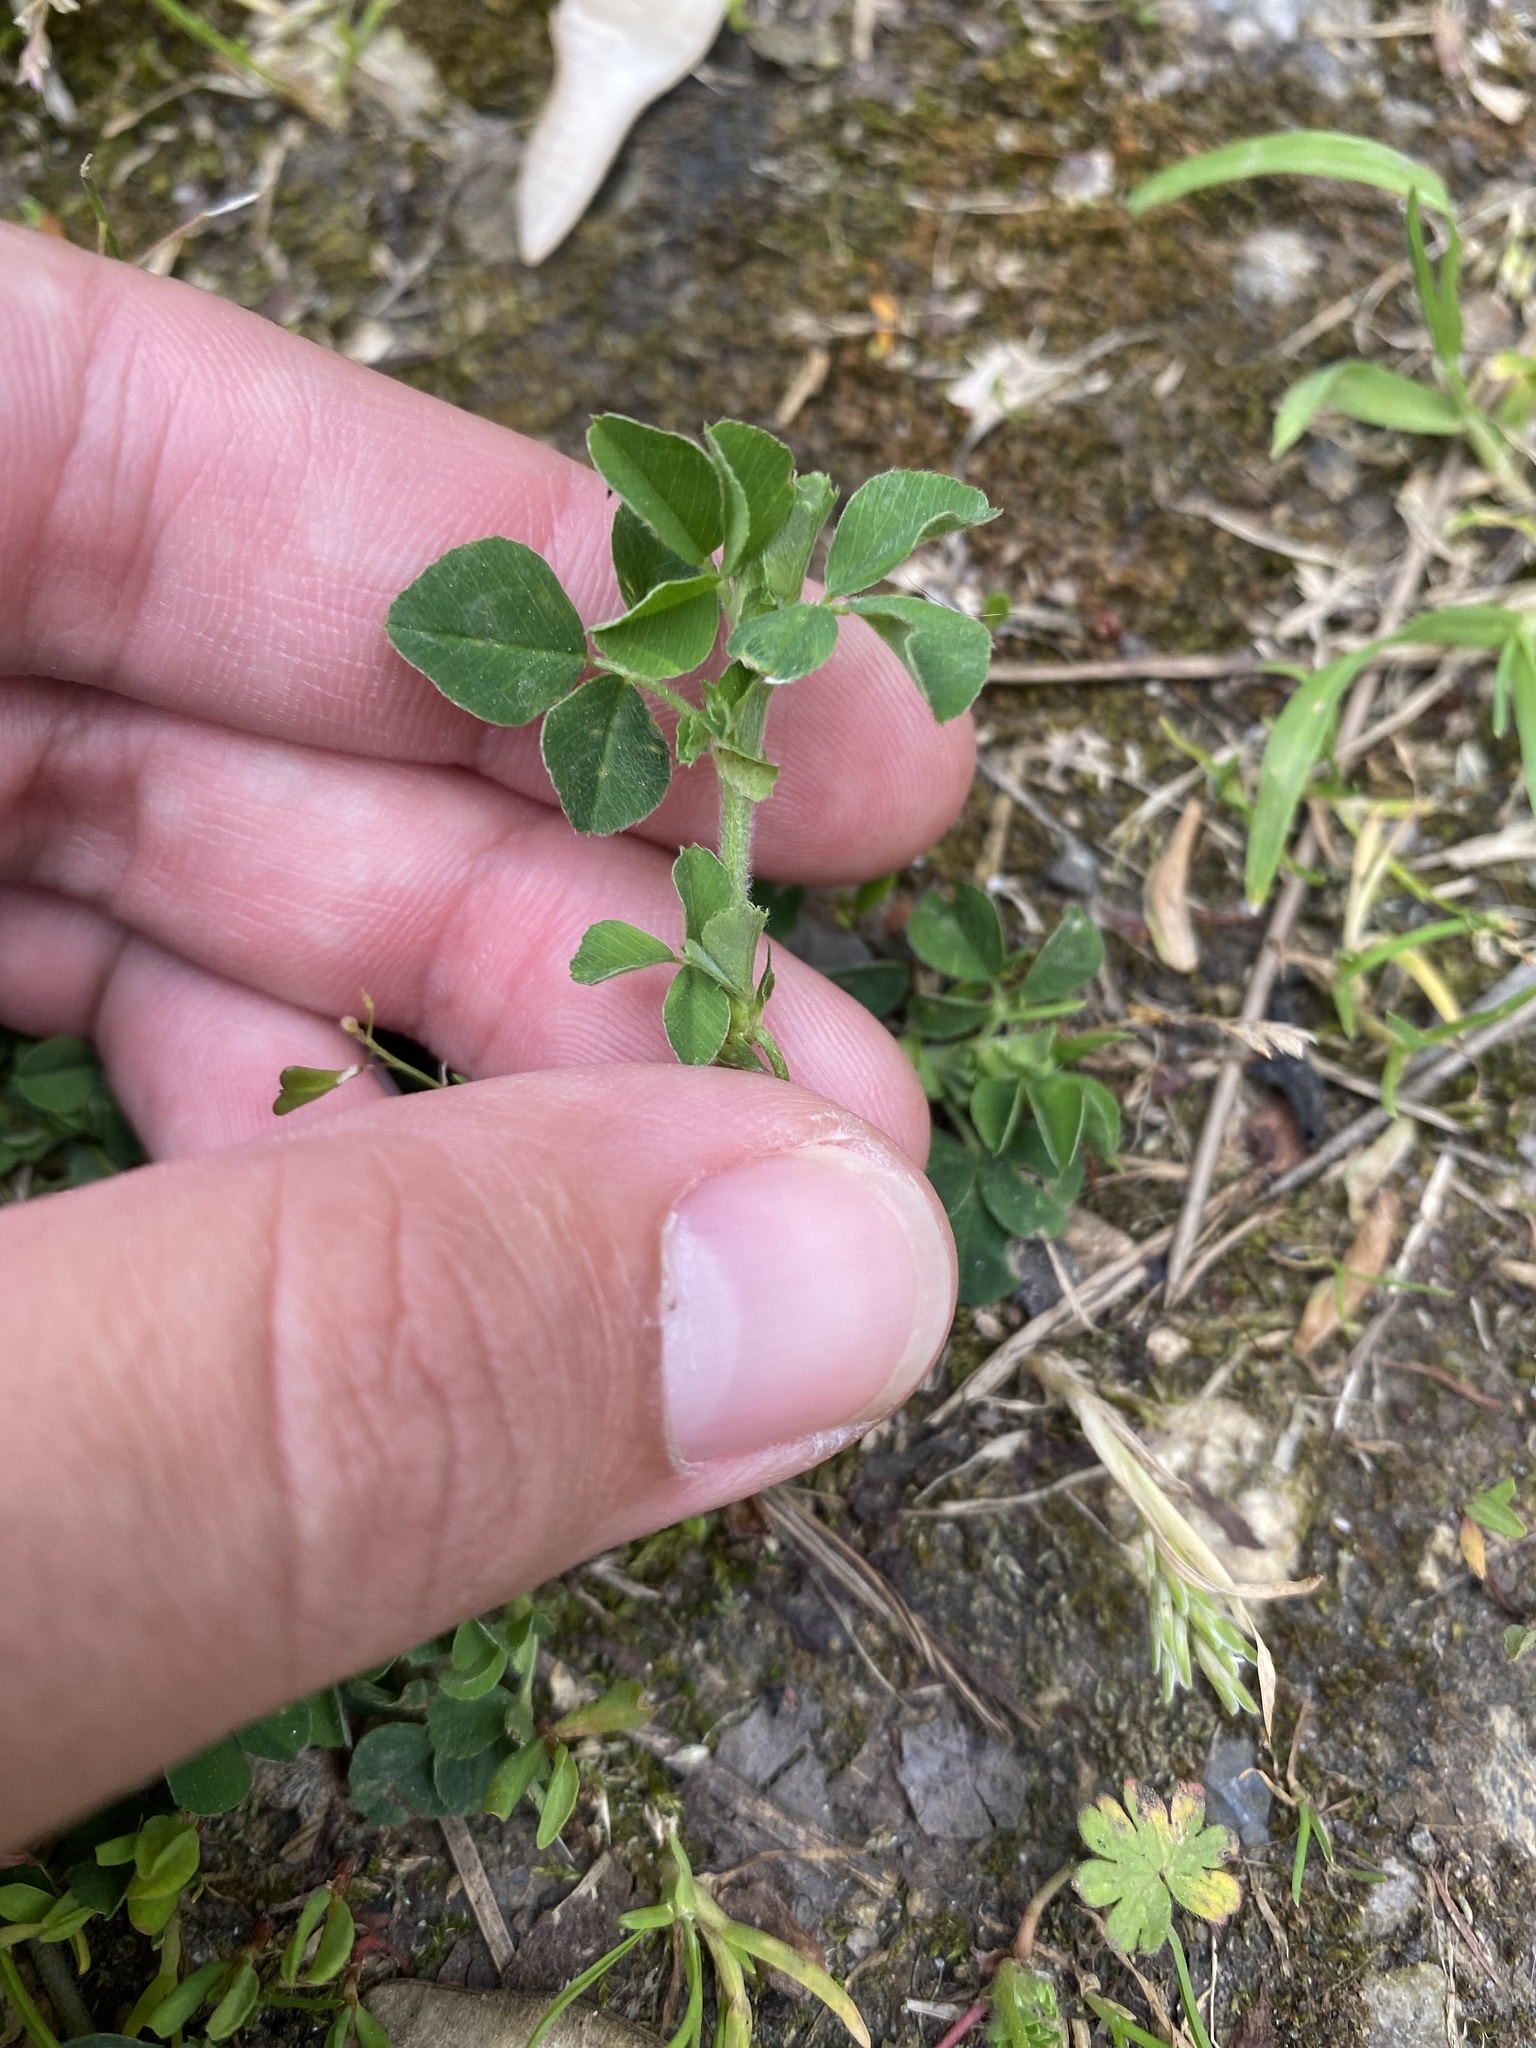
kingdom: Plantae
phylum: Tracheophyta
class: Magnoliopsida
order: Fabales
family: Fabaceae
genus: Medicago
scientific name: Medicago lupulina
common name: Black medick
